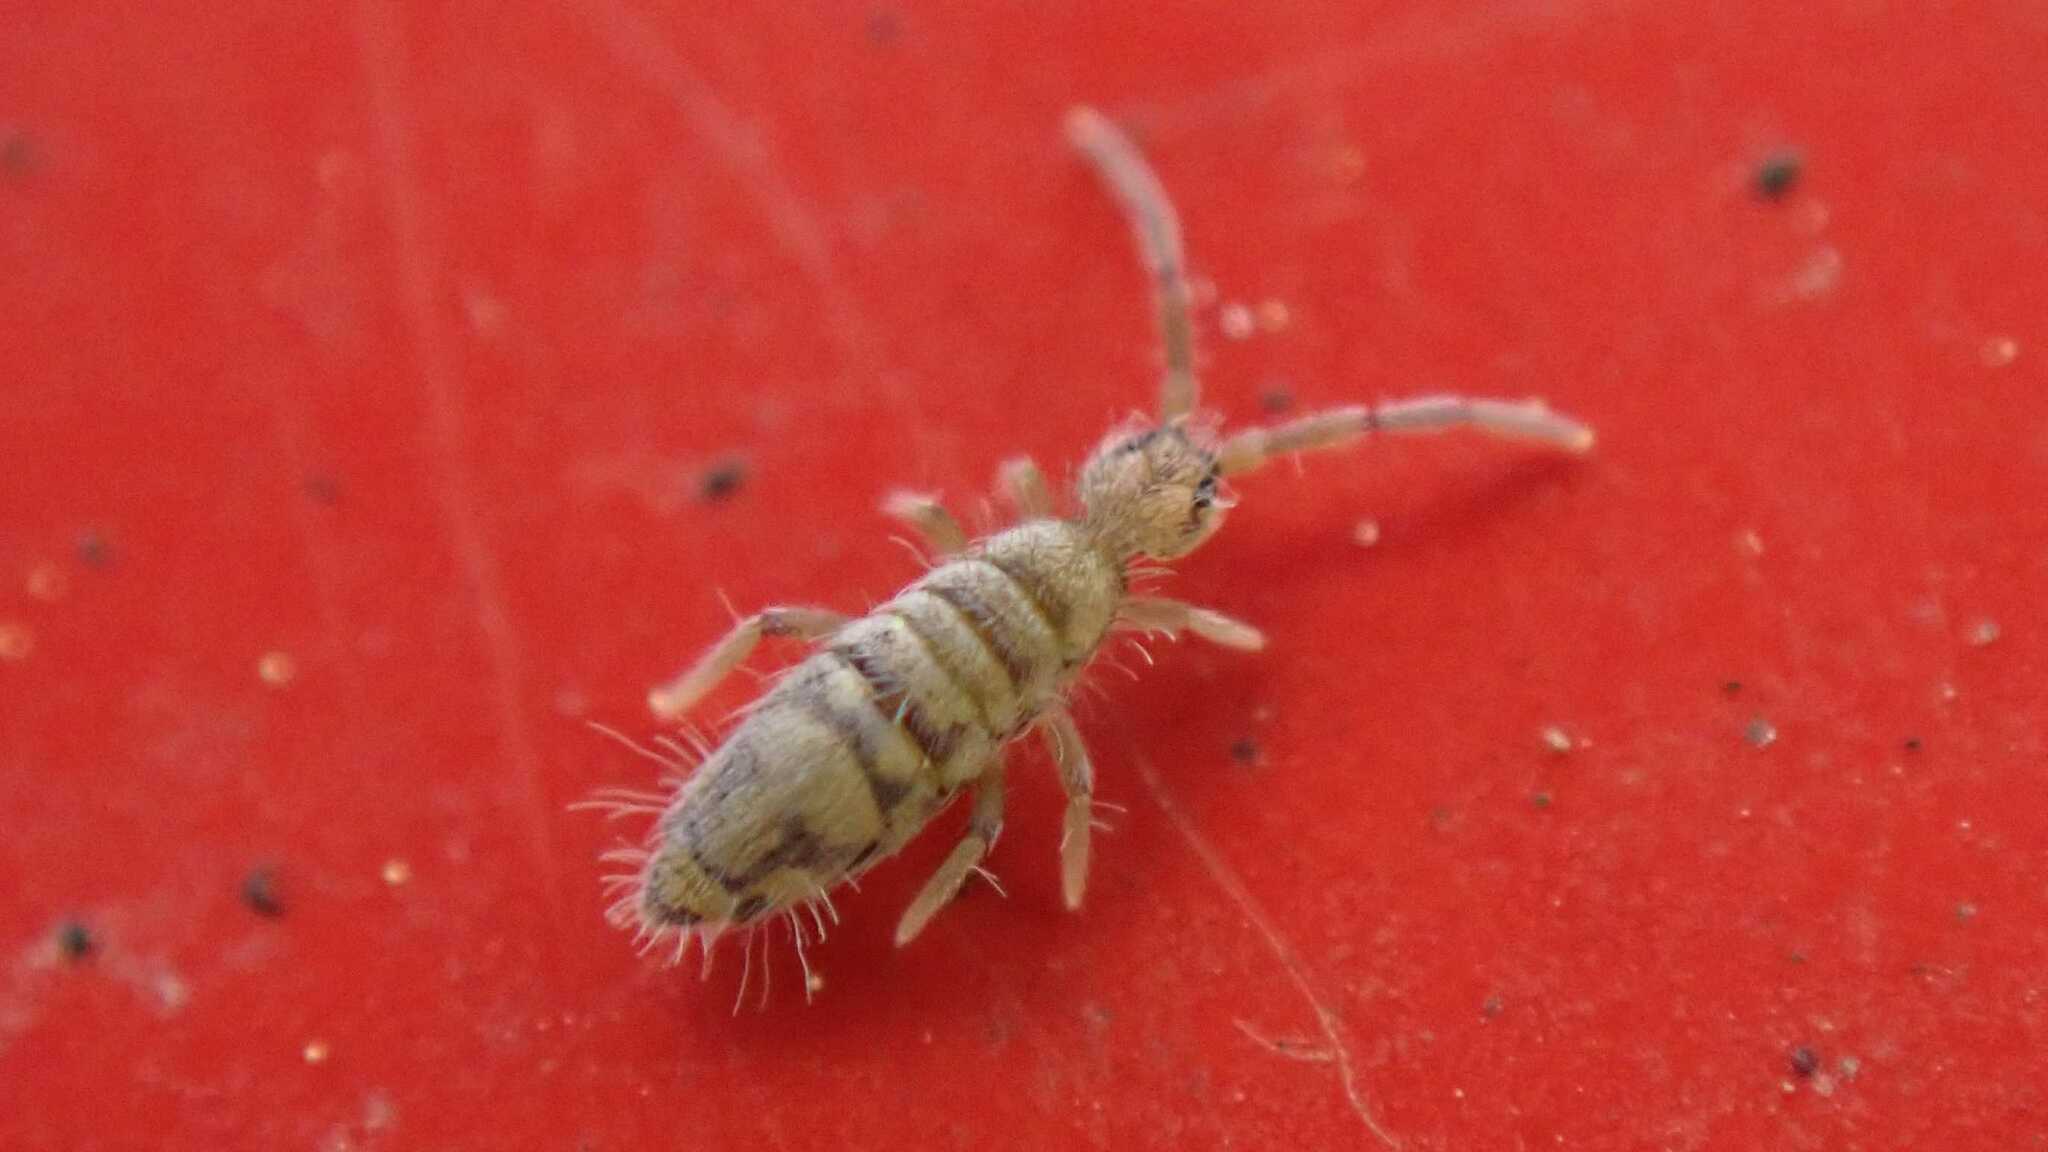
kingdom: Animalia
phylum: Arthropoda
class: Collembola
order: Entomobryomorpha
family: Entomobryidae
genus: Entomobrya
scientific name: Entomobrya nivalis
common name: Cosmopolitan springtail
